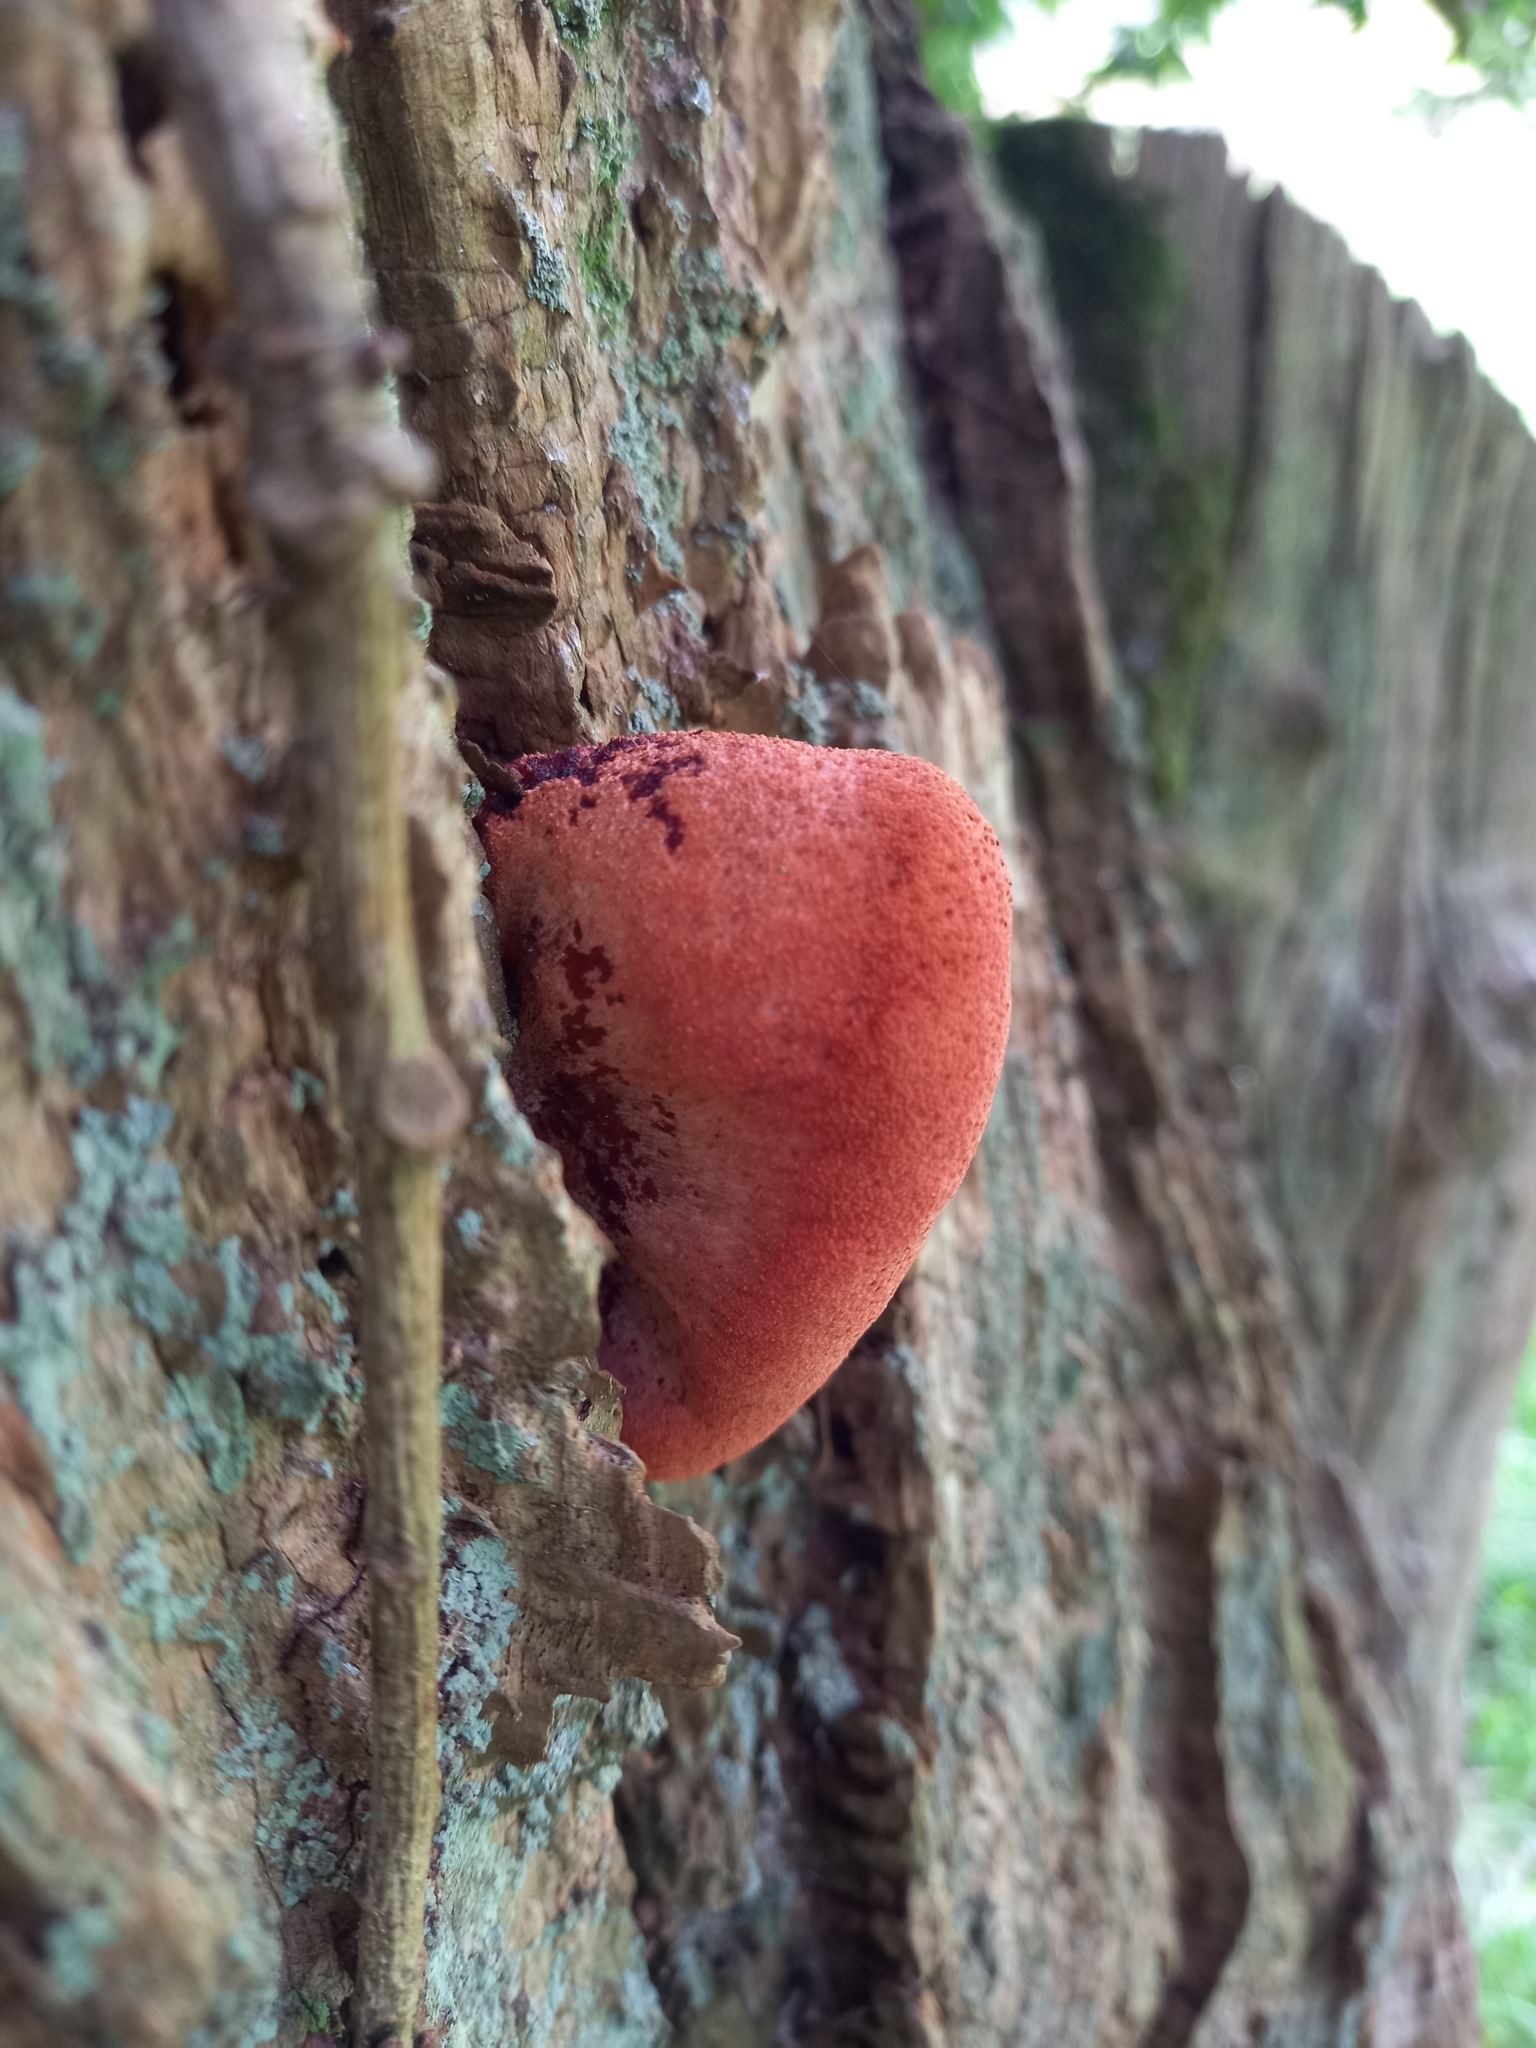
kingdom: Fungi
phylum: Basidiomycota
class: Agaricomycetes
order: Agaricales
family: Fistulinaceae
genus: Fistulina
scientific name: Fistulina hepatica
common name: Beef-steak fungus
